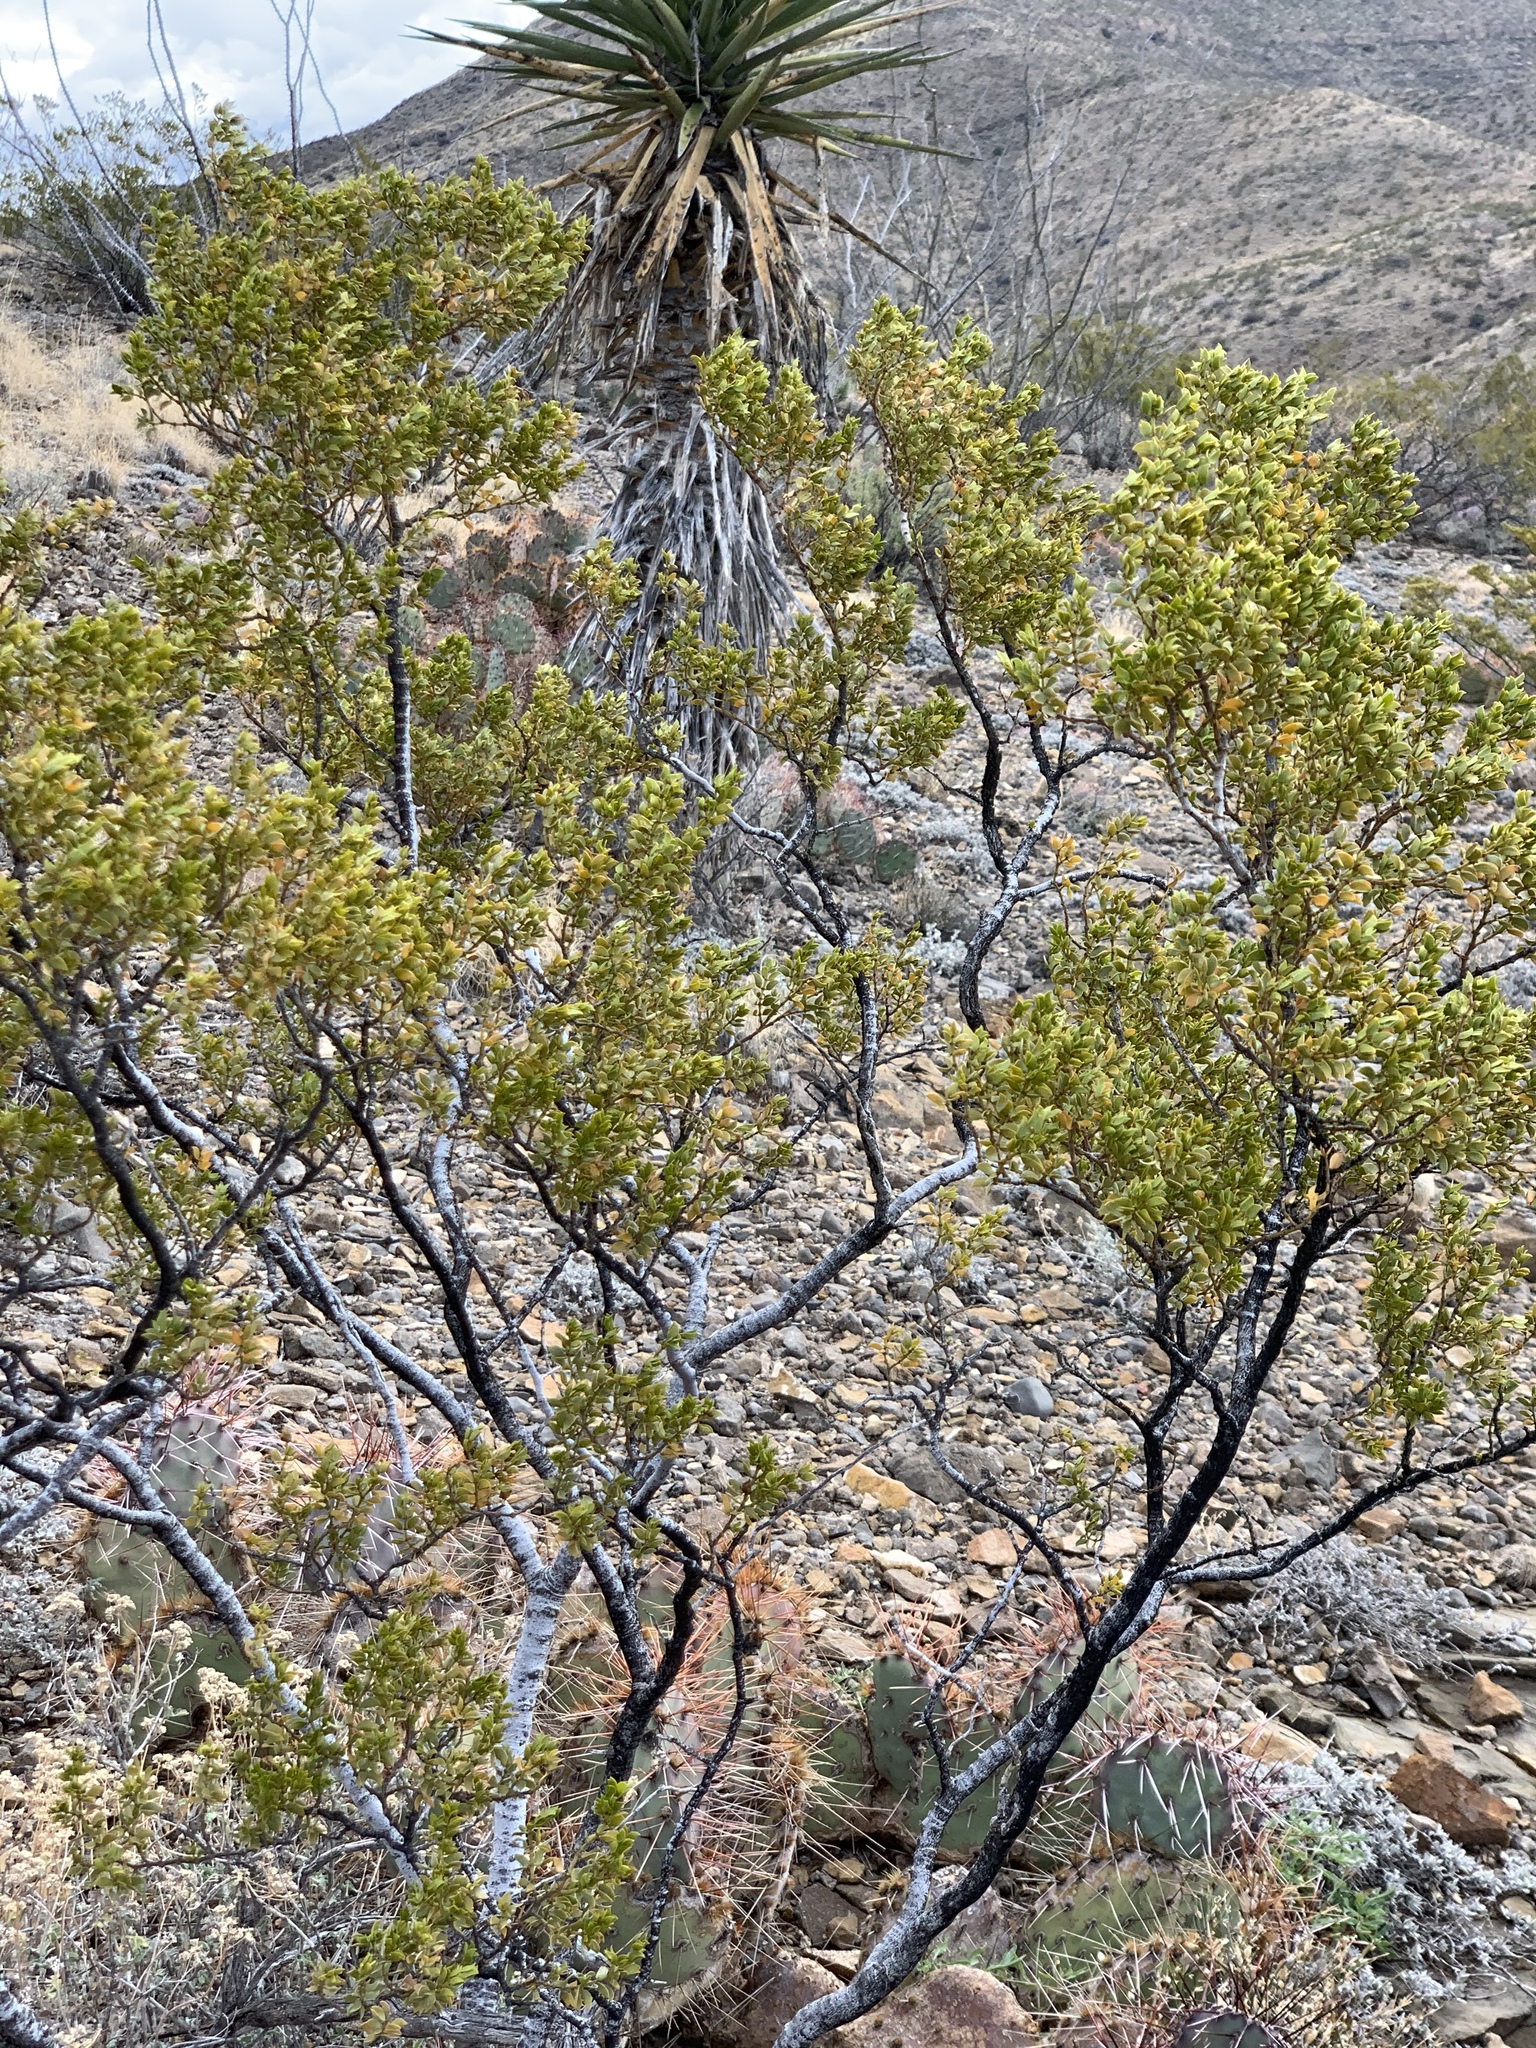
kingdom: Plantae
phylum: Tracheophyta
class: Magnoliopsida
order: Zygophyllales
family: Zygophyllaceae
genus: Larrea
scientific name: Larrea tridentata
